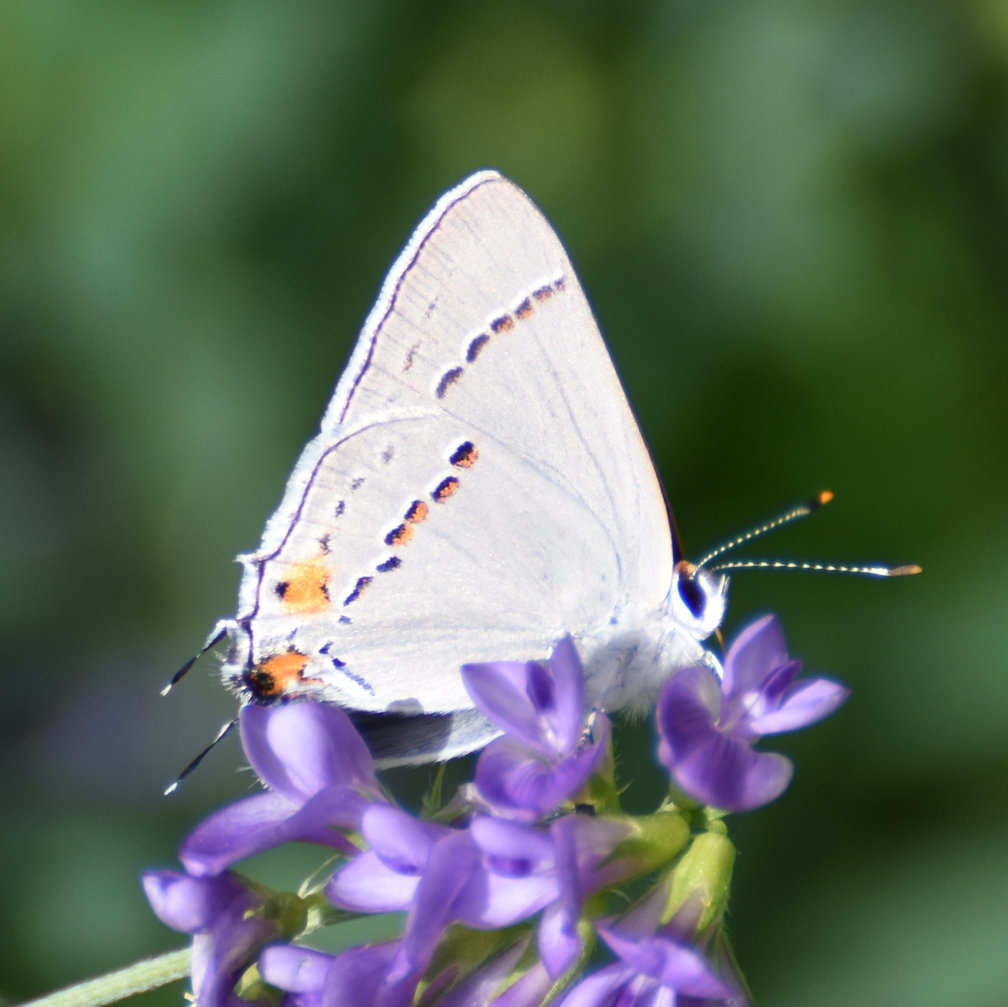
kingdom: Animalia
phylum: Arthropoda
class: Insecta
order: Lepidoptera
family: Lycaenidae
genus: Strymon
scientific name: Strymon melinus
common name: Gray hairstreak
